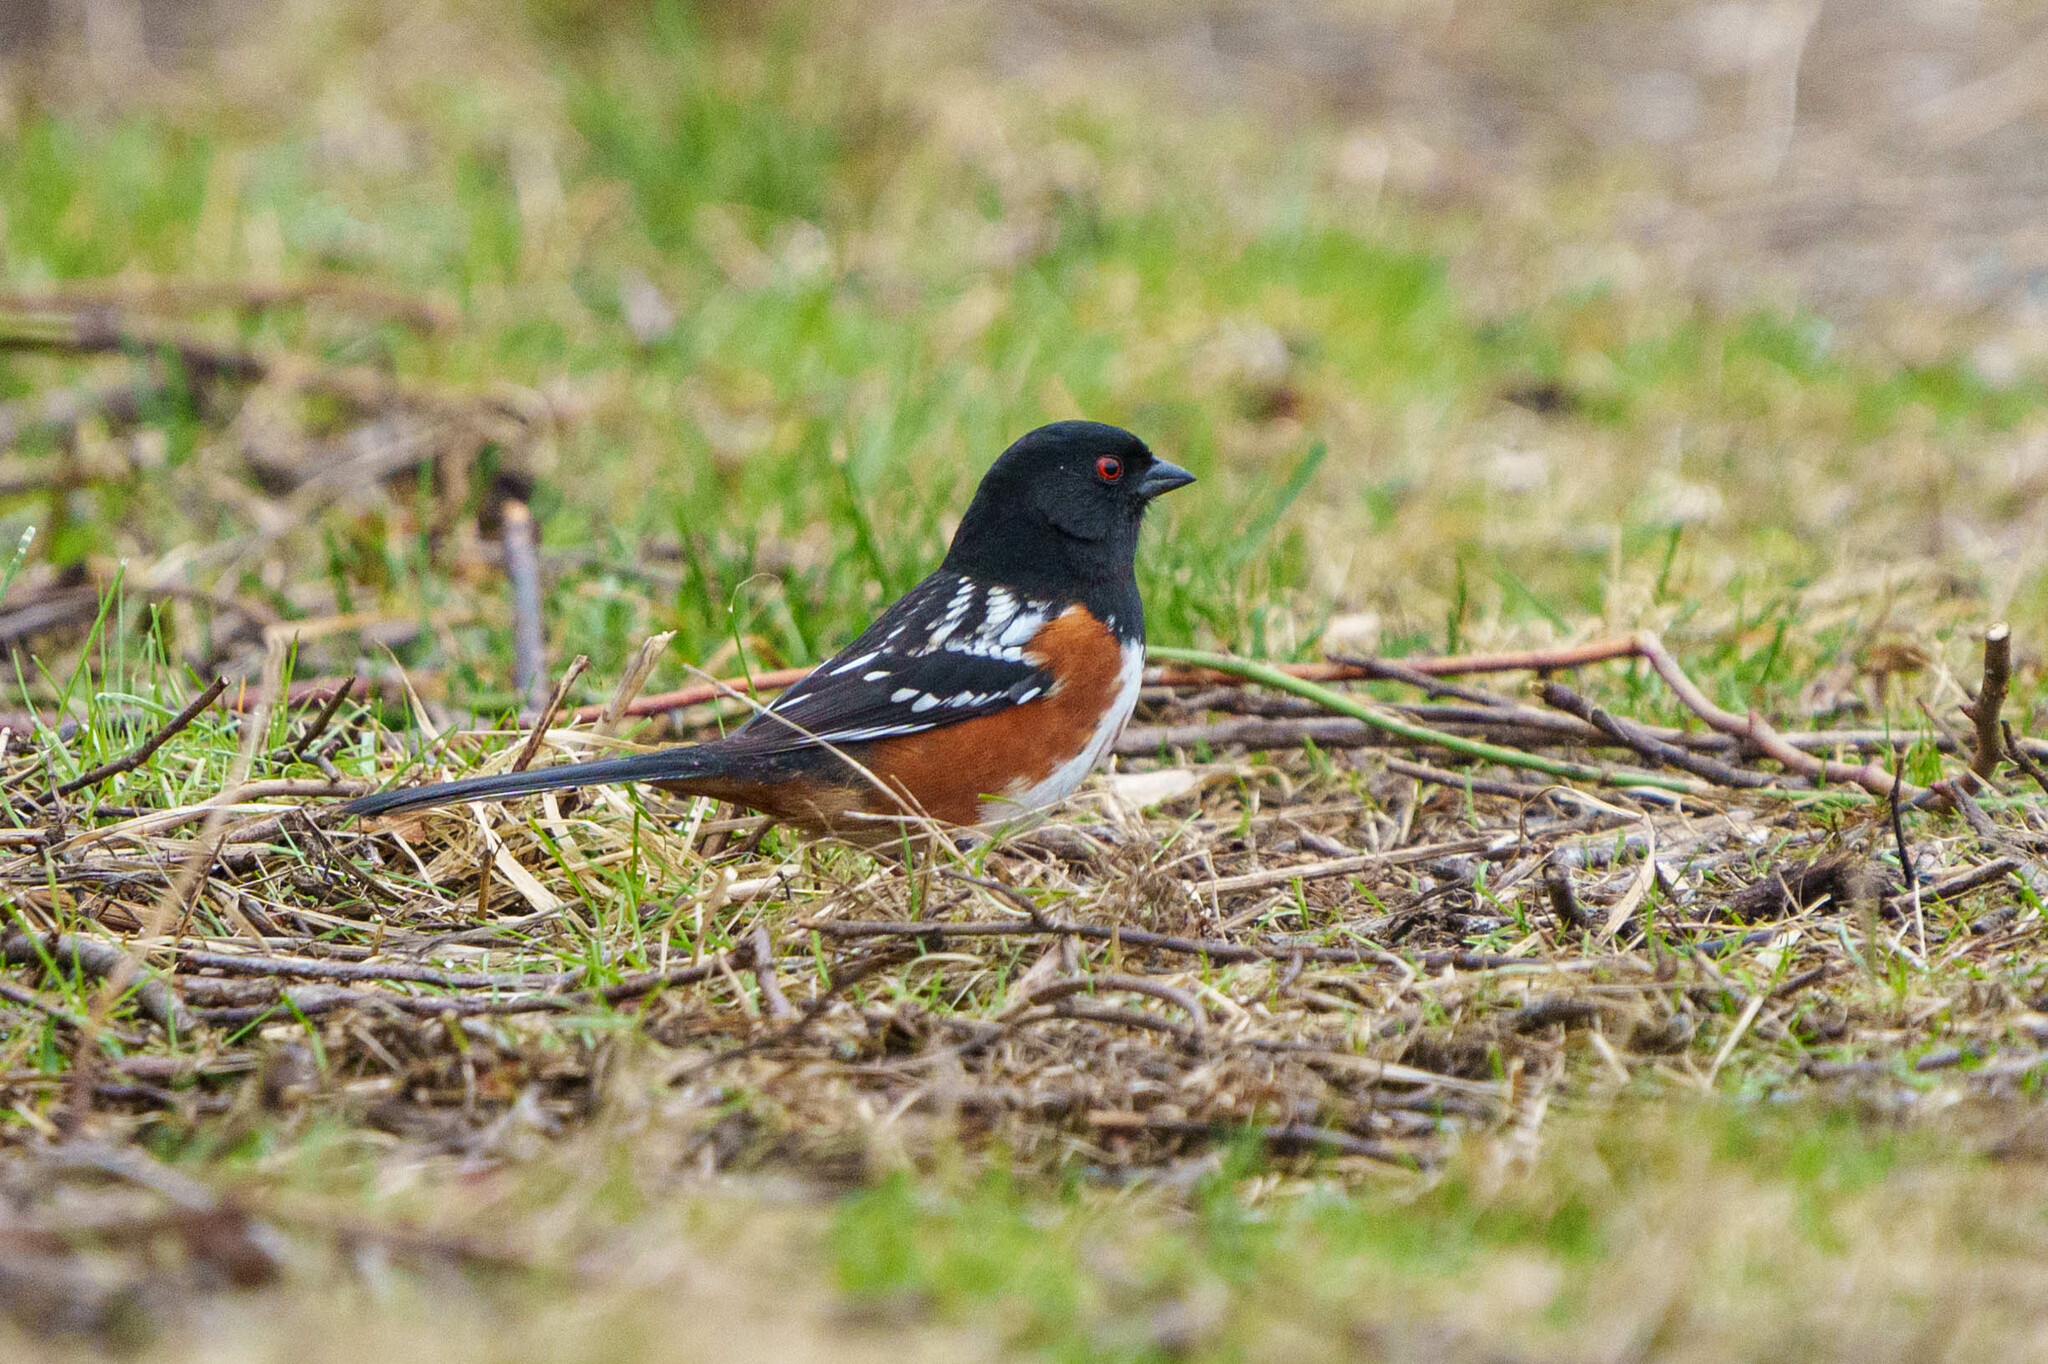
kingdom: Animalia
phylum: Chordata
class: Aves
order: Passeriformes
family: Passerellidae
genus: Pipilo
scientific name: Pipilo maculatus
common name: Spotted towhee
